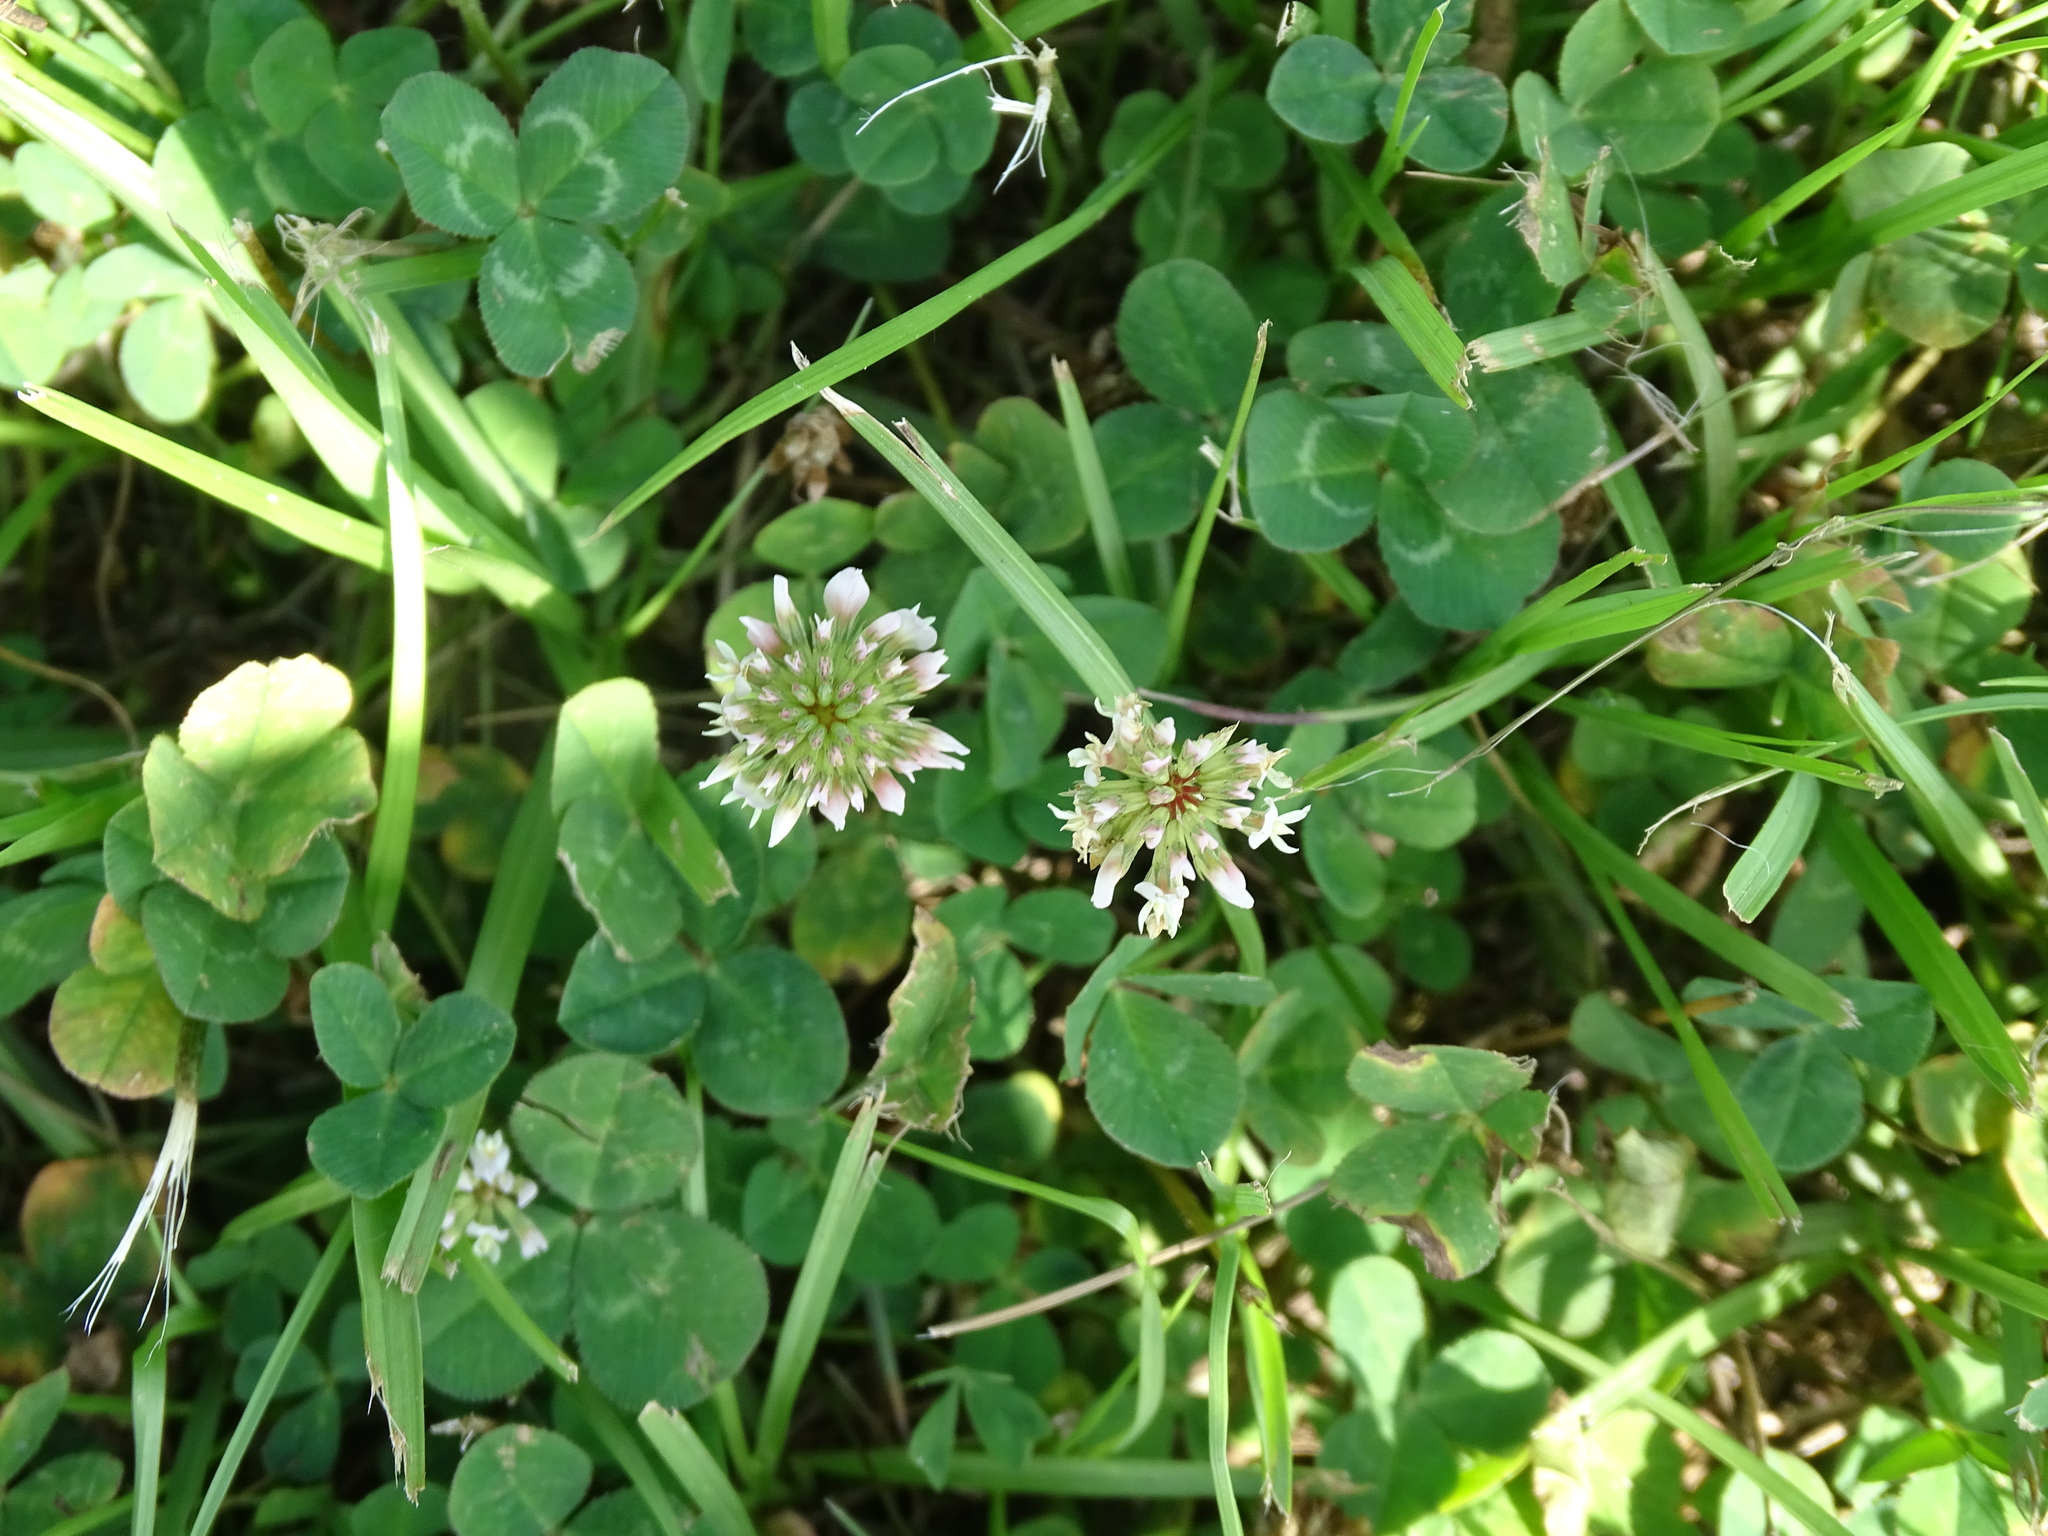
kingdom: Plantae
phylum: Tracheophyta
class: Magnoliopsida
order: Fabales
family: Fabaceae
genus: Trifolium
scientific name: Trifolium repens
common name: White clover
